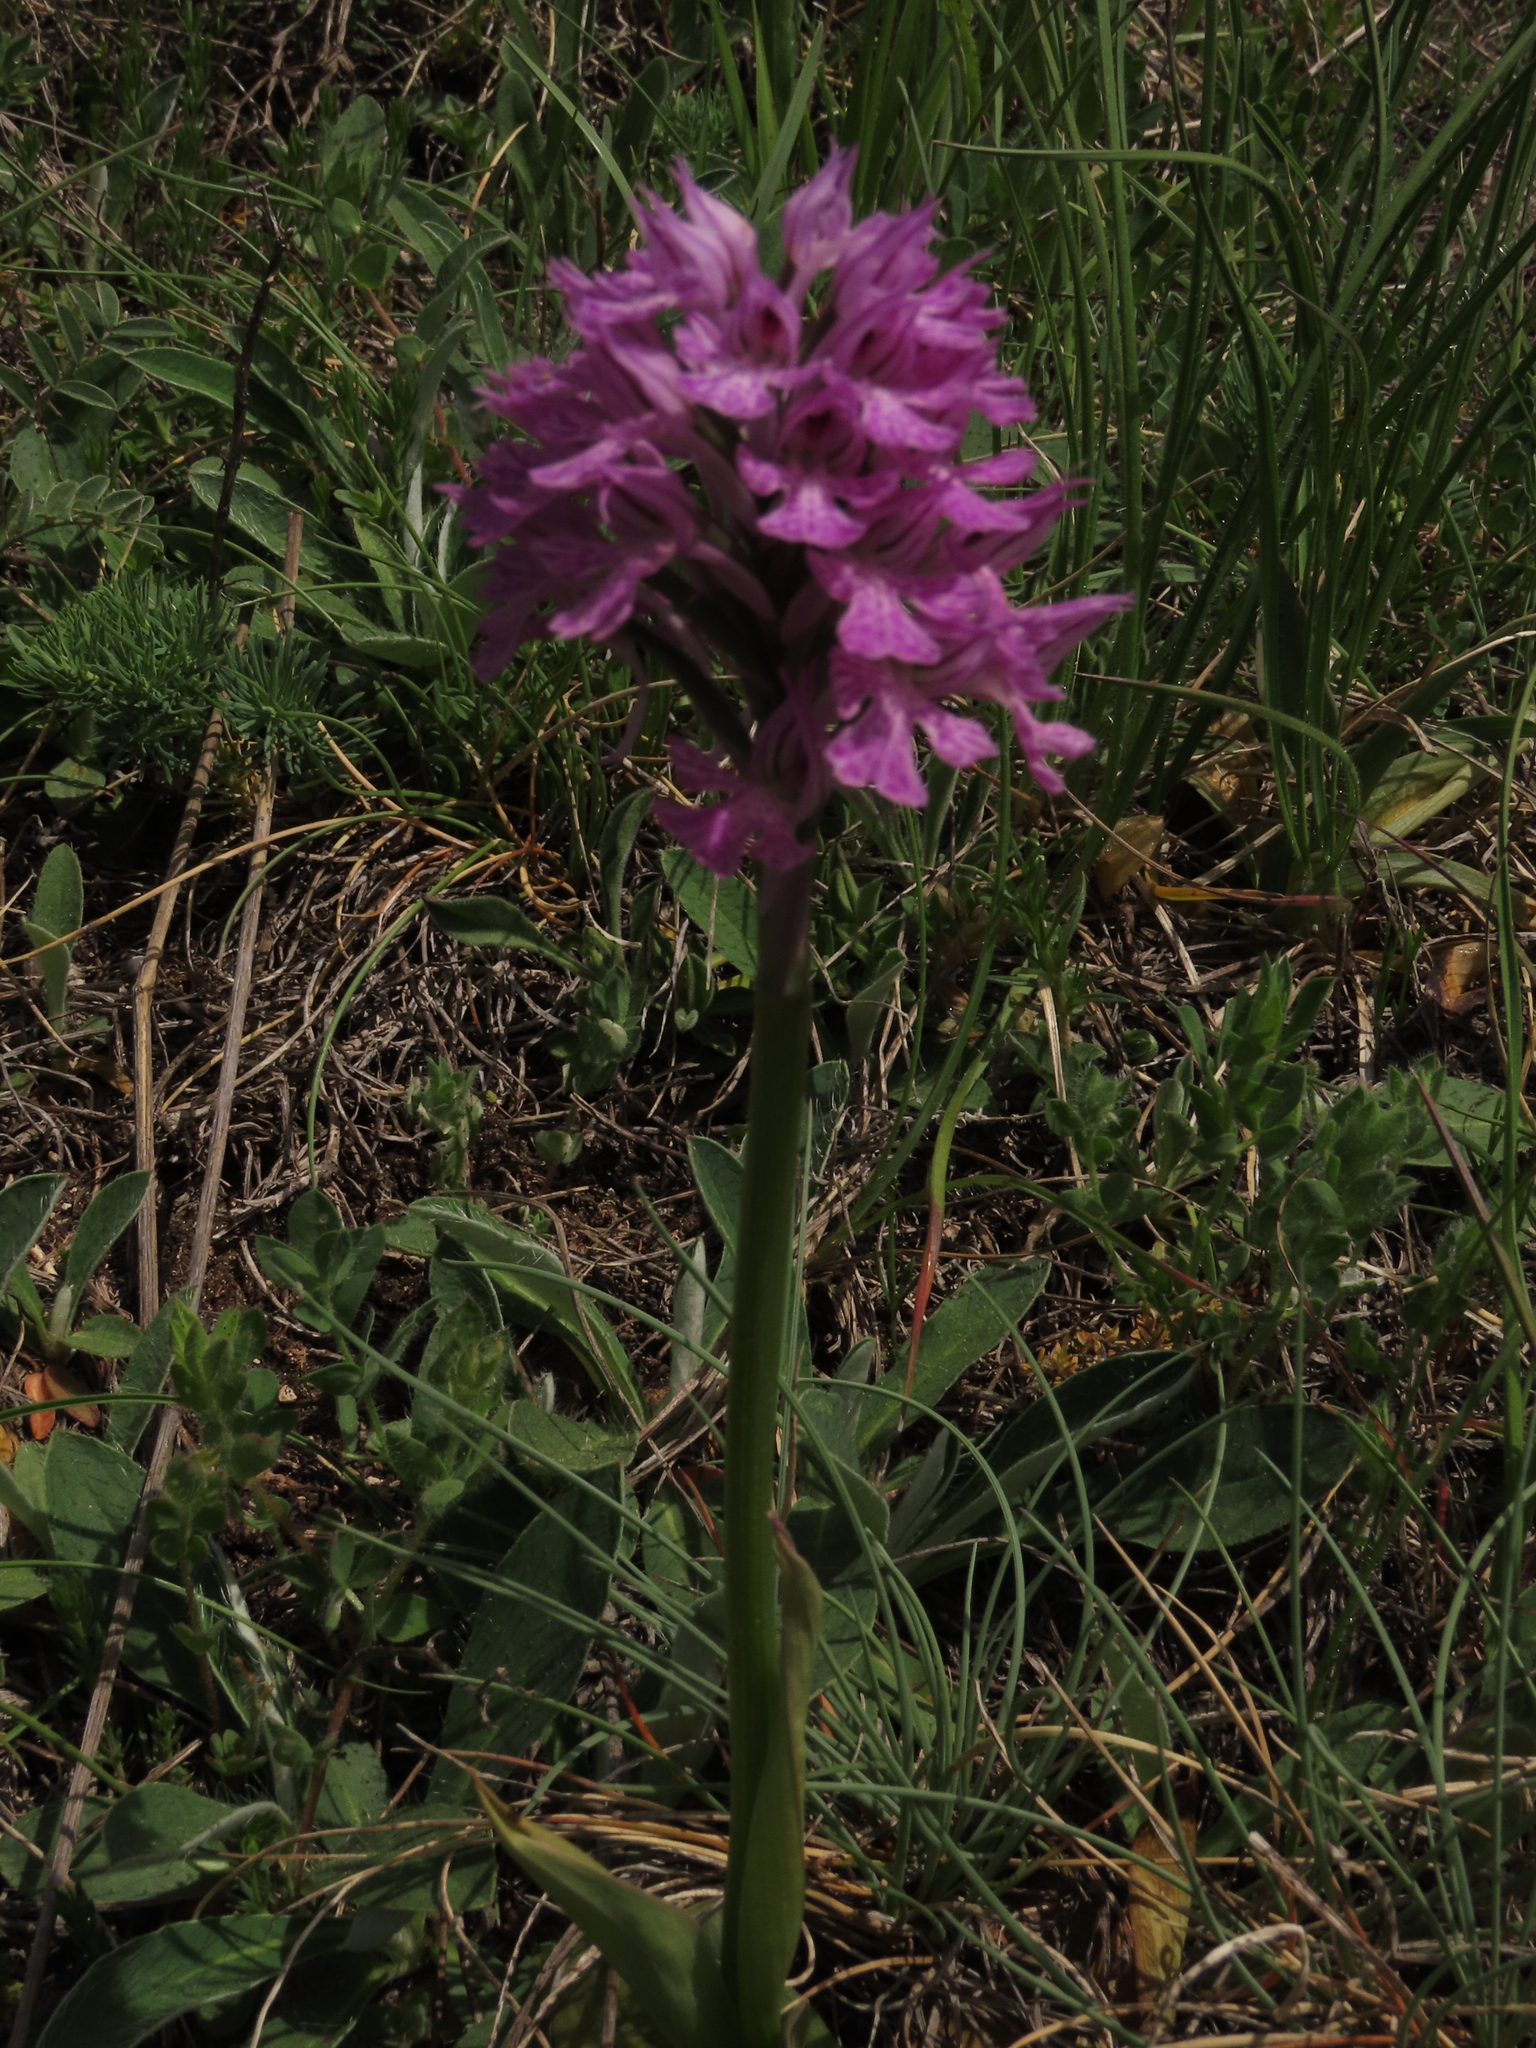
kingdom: Plantae
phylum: Tracheophyta
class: Liliopsida
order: Asparagales
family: Orchidaceae
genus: Neotinea
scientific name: Neotinea tridentata
